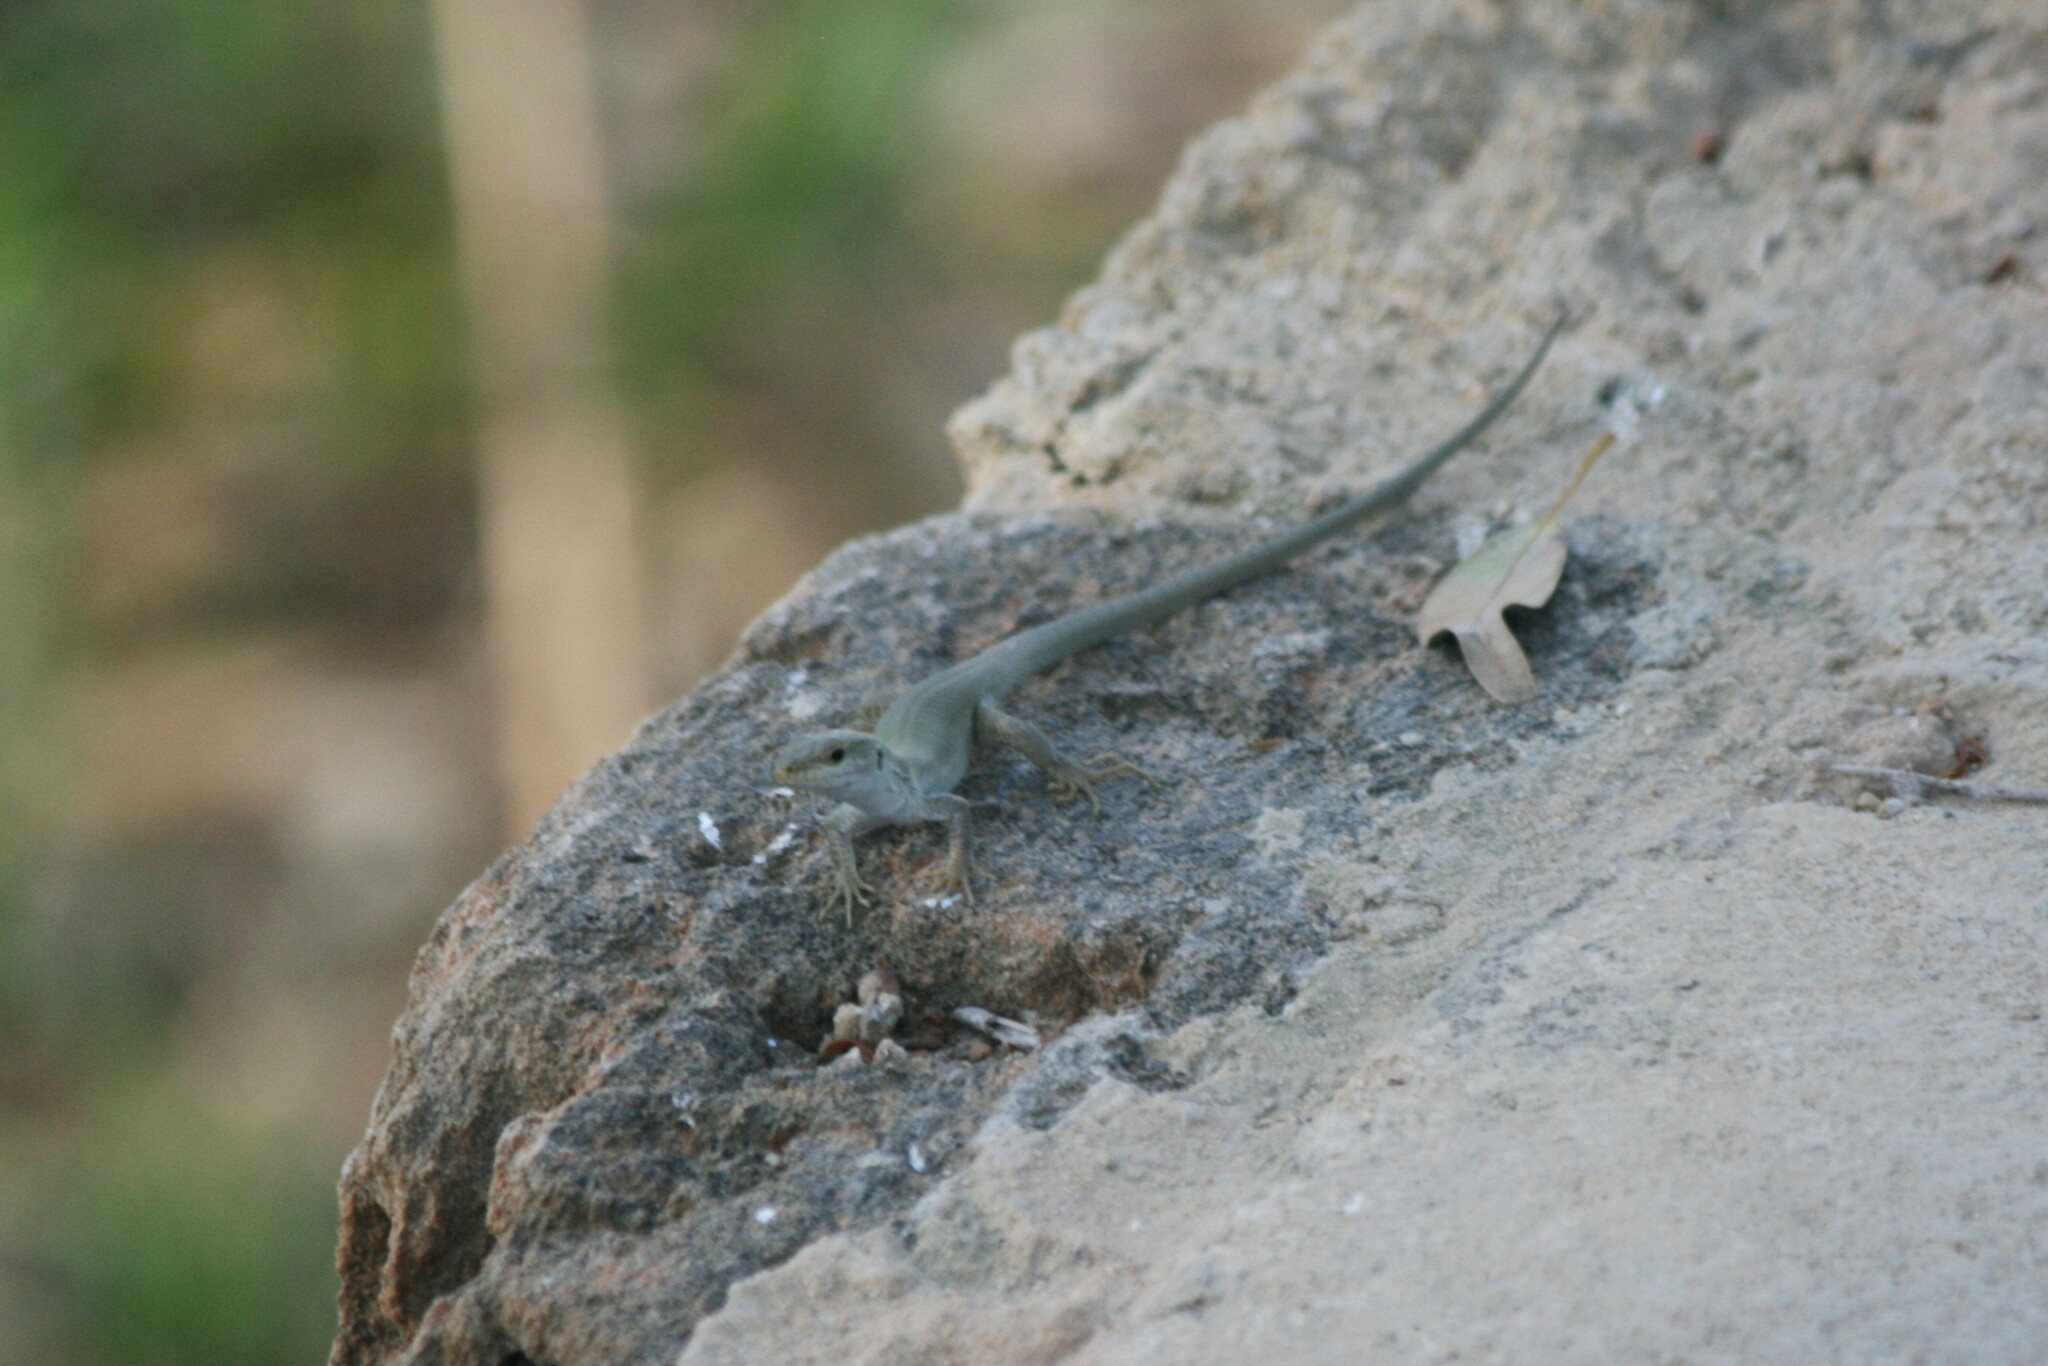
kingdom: Animalia
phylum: Chordata
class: Squamata
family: Lacertidae
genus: Podarcis
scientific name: Podarcis siculus
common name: Italian wall lizard
